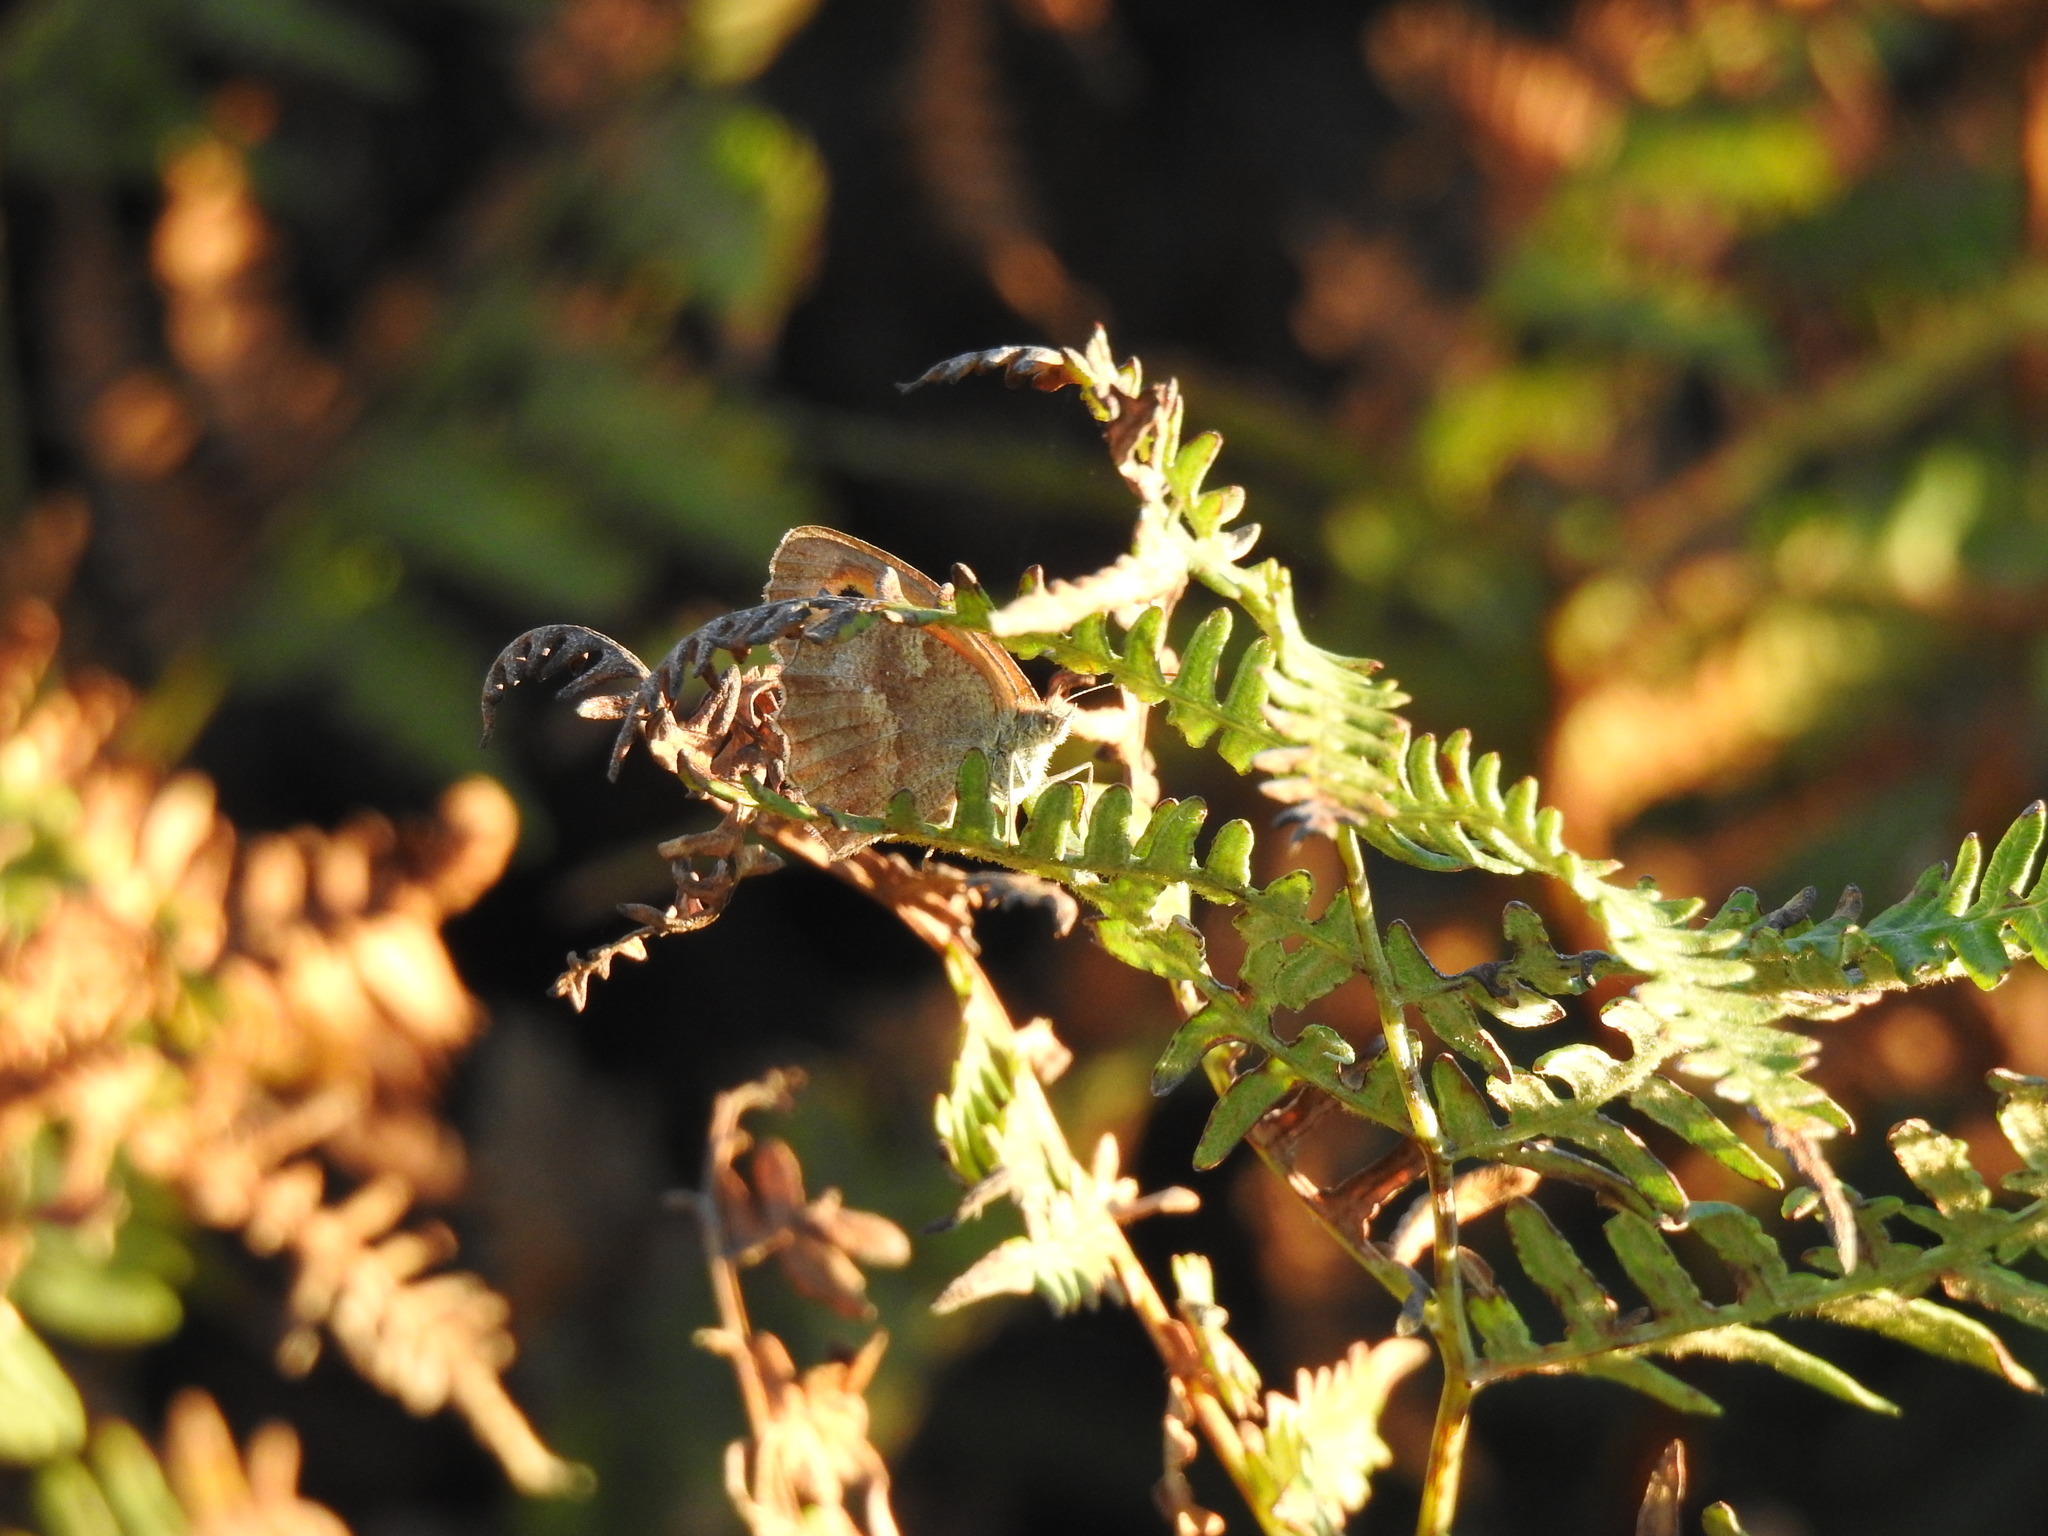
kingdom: Animalia
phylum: Arthropoda
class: Insecta
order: Lepidoptera
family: Nymphalidae
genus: Pyronia
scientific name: Pyronia tithonus
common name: Gatekeeper
